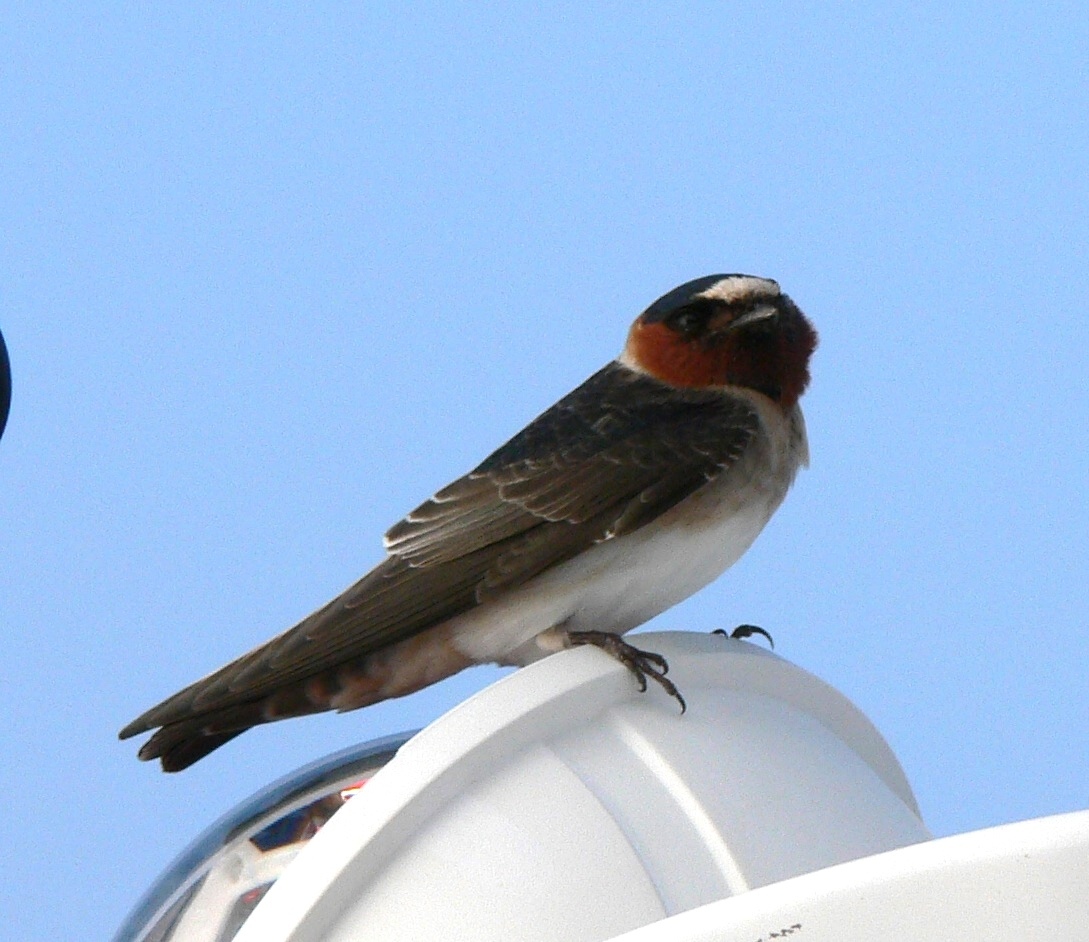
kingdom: Animalia
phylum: Chordata
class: Aves
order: Passeriformes
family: Hirundinidae
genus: Petrochelidon
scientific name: Petrochelidon pyrrhonota
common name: American cliff swallow
